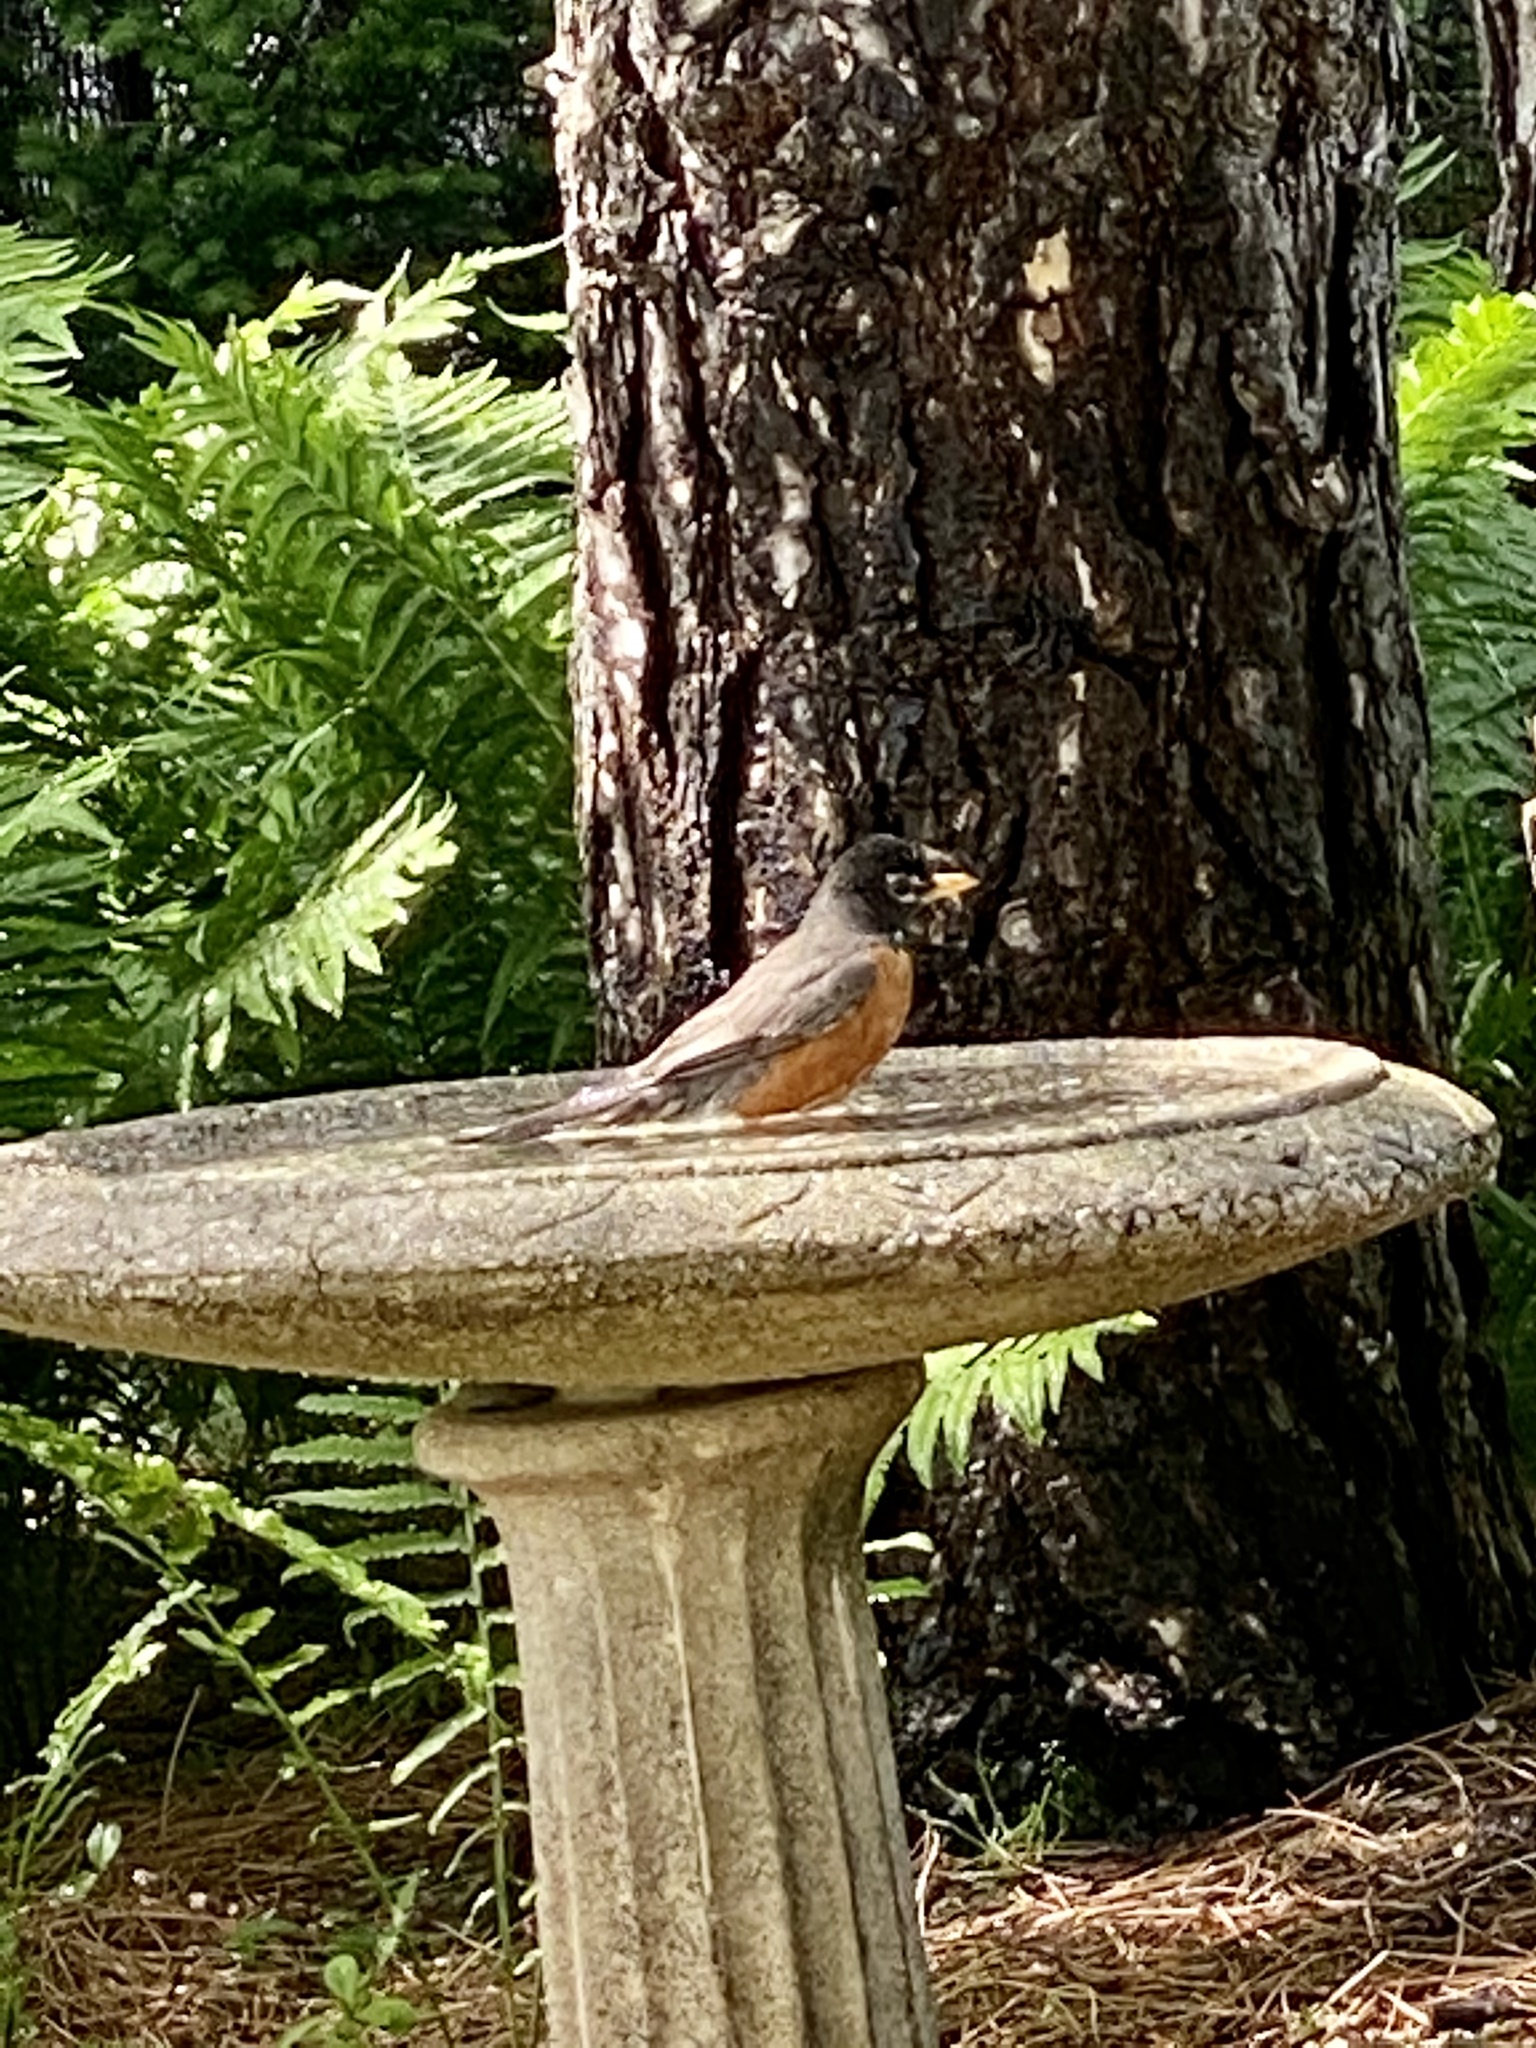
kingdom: Animalia
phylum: Chordata
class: Aves
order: Passeriformes
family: Turdidae
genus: Turdus
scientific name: Turdus migratorius
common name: American robin
